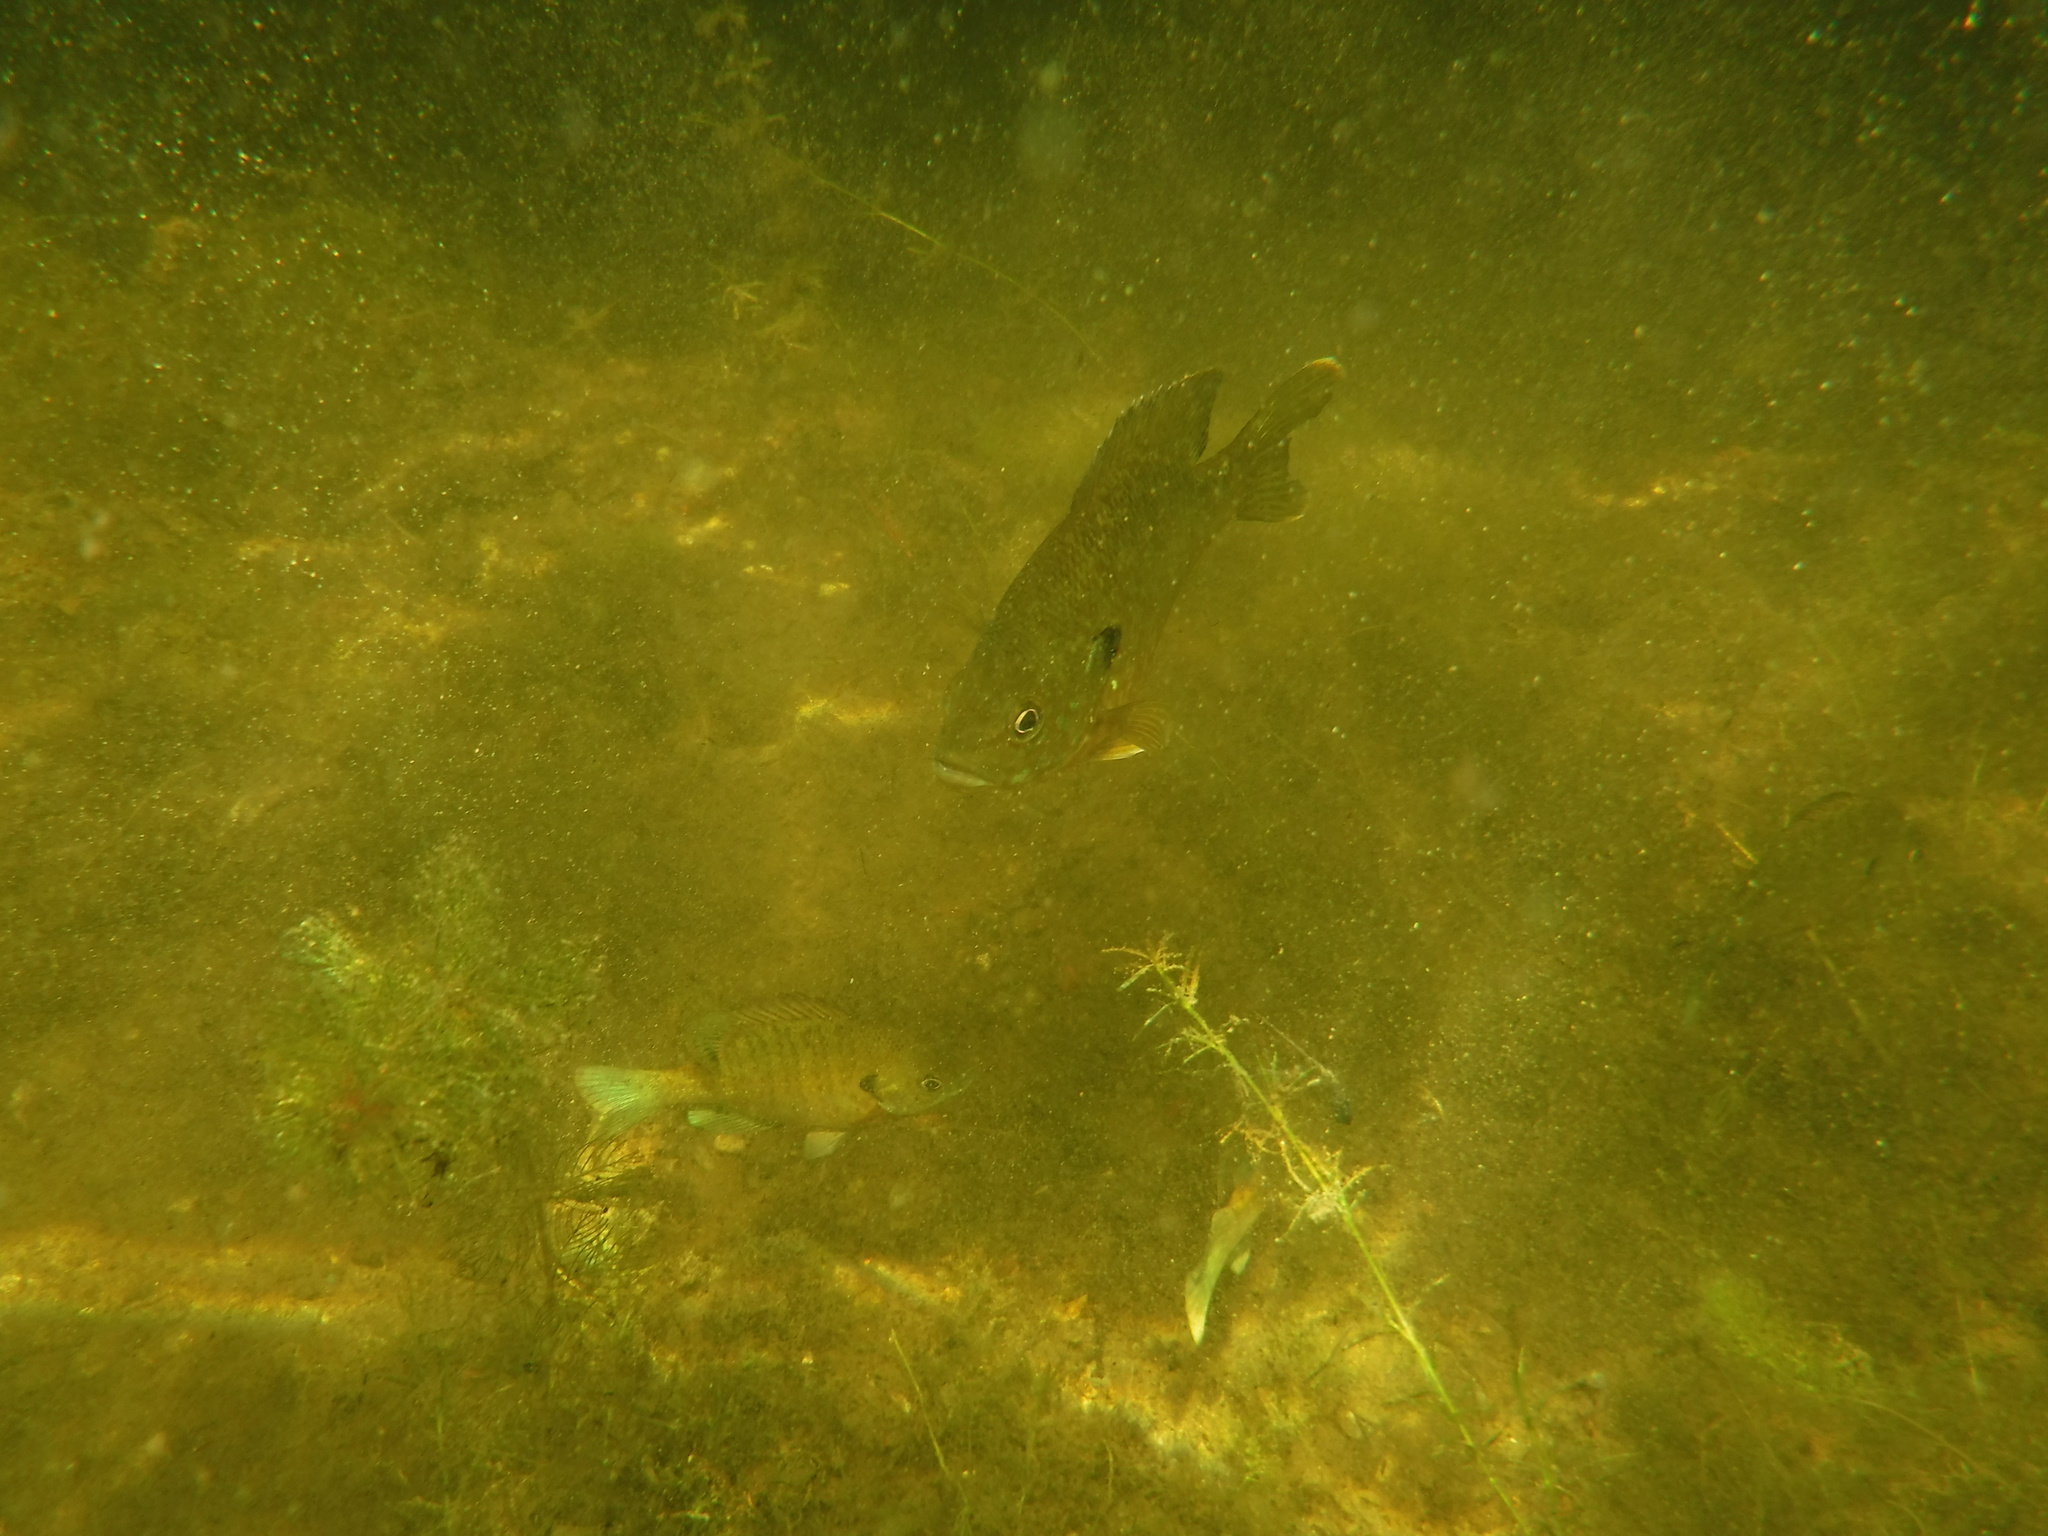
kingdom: Animalia
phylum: Chordata
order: Perciformes
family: Centrarchidae
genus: Lepomis
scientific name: Lepomis gibbosus
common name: Pumpkinseed
